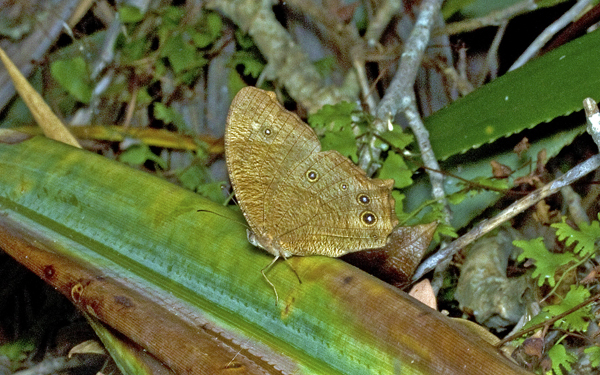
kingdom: Animalia
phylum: Arthropoda
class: Insecta
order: Lepidoptera
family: Nymphalidae
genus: Melanitis
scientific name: Melanitis leda
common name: Twilight brown
